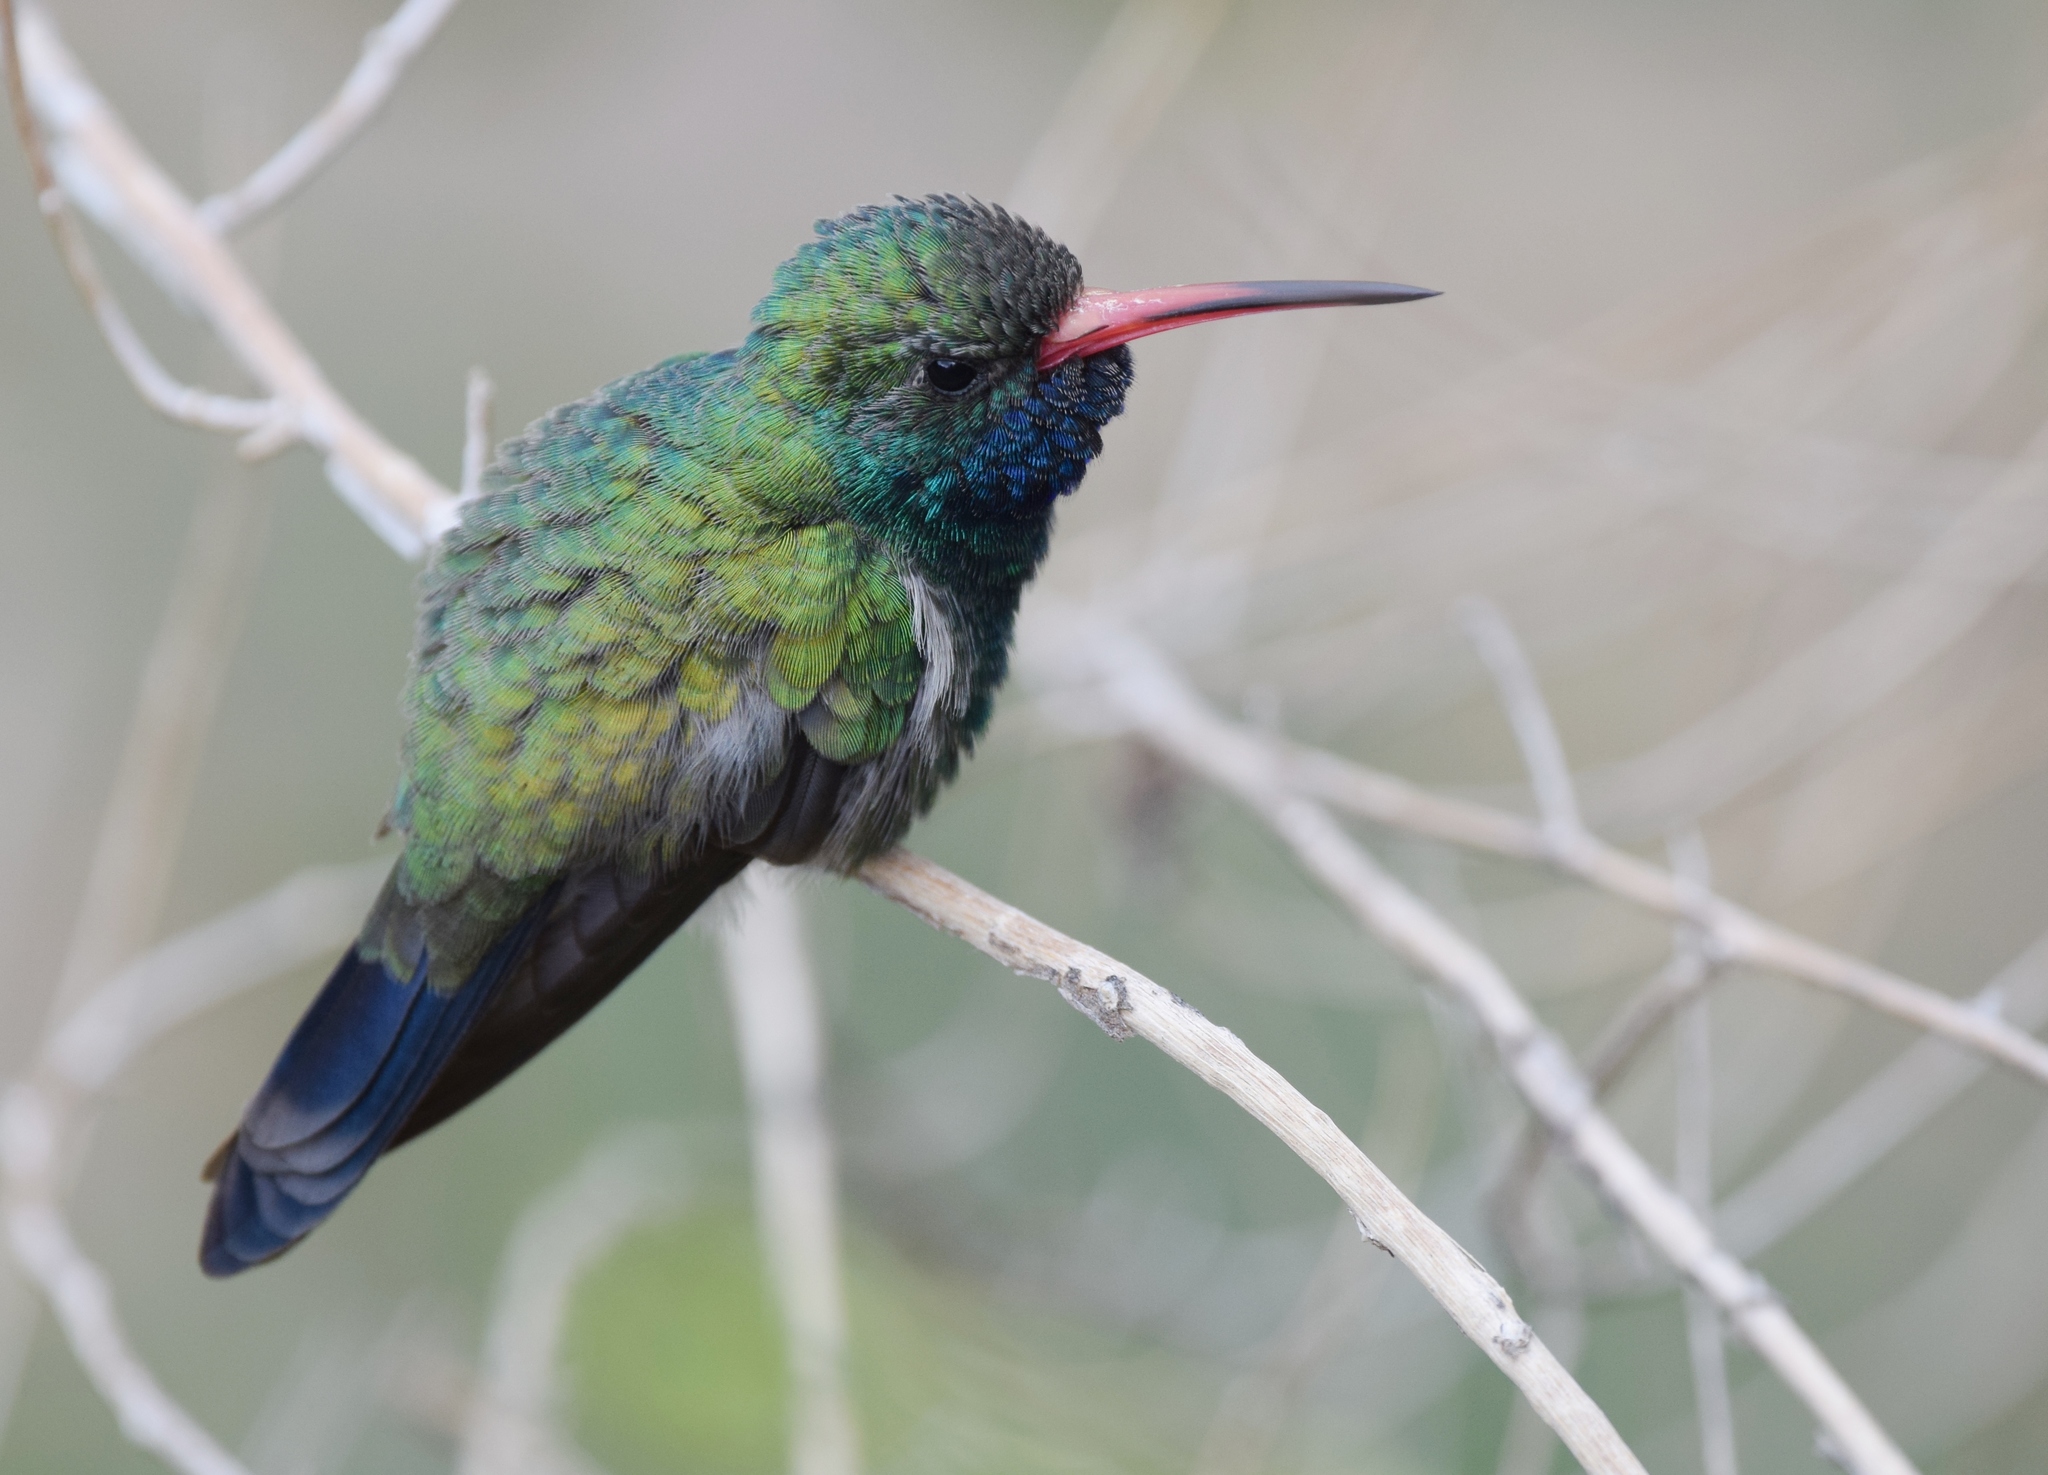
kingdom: Animalia
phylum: Chordata
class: Aves
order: Apodiformes
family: Trochilidae
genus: Cynanthus
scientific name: Cynanthus latirostris
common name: Broad-billed hummingbird
